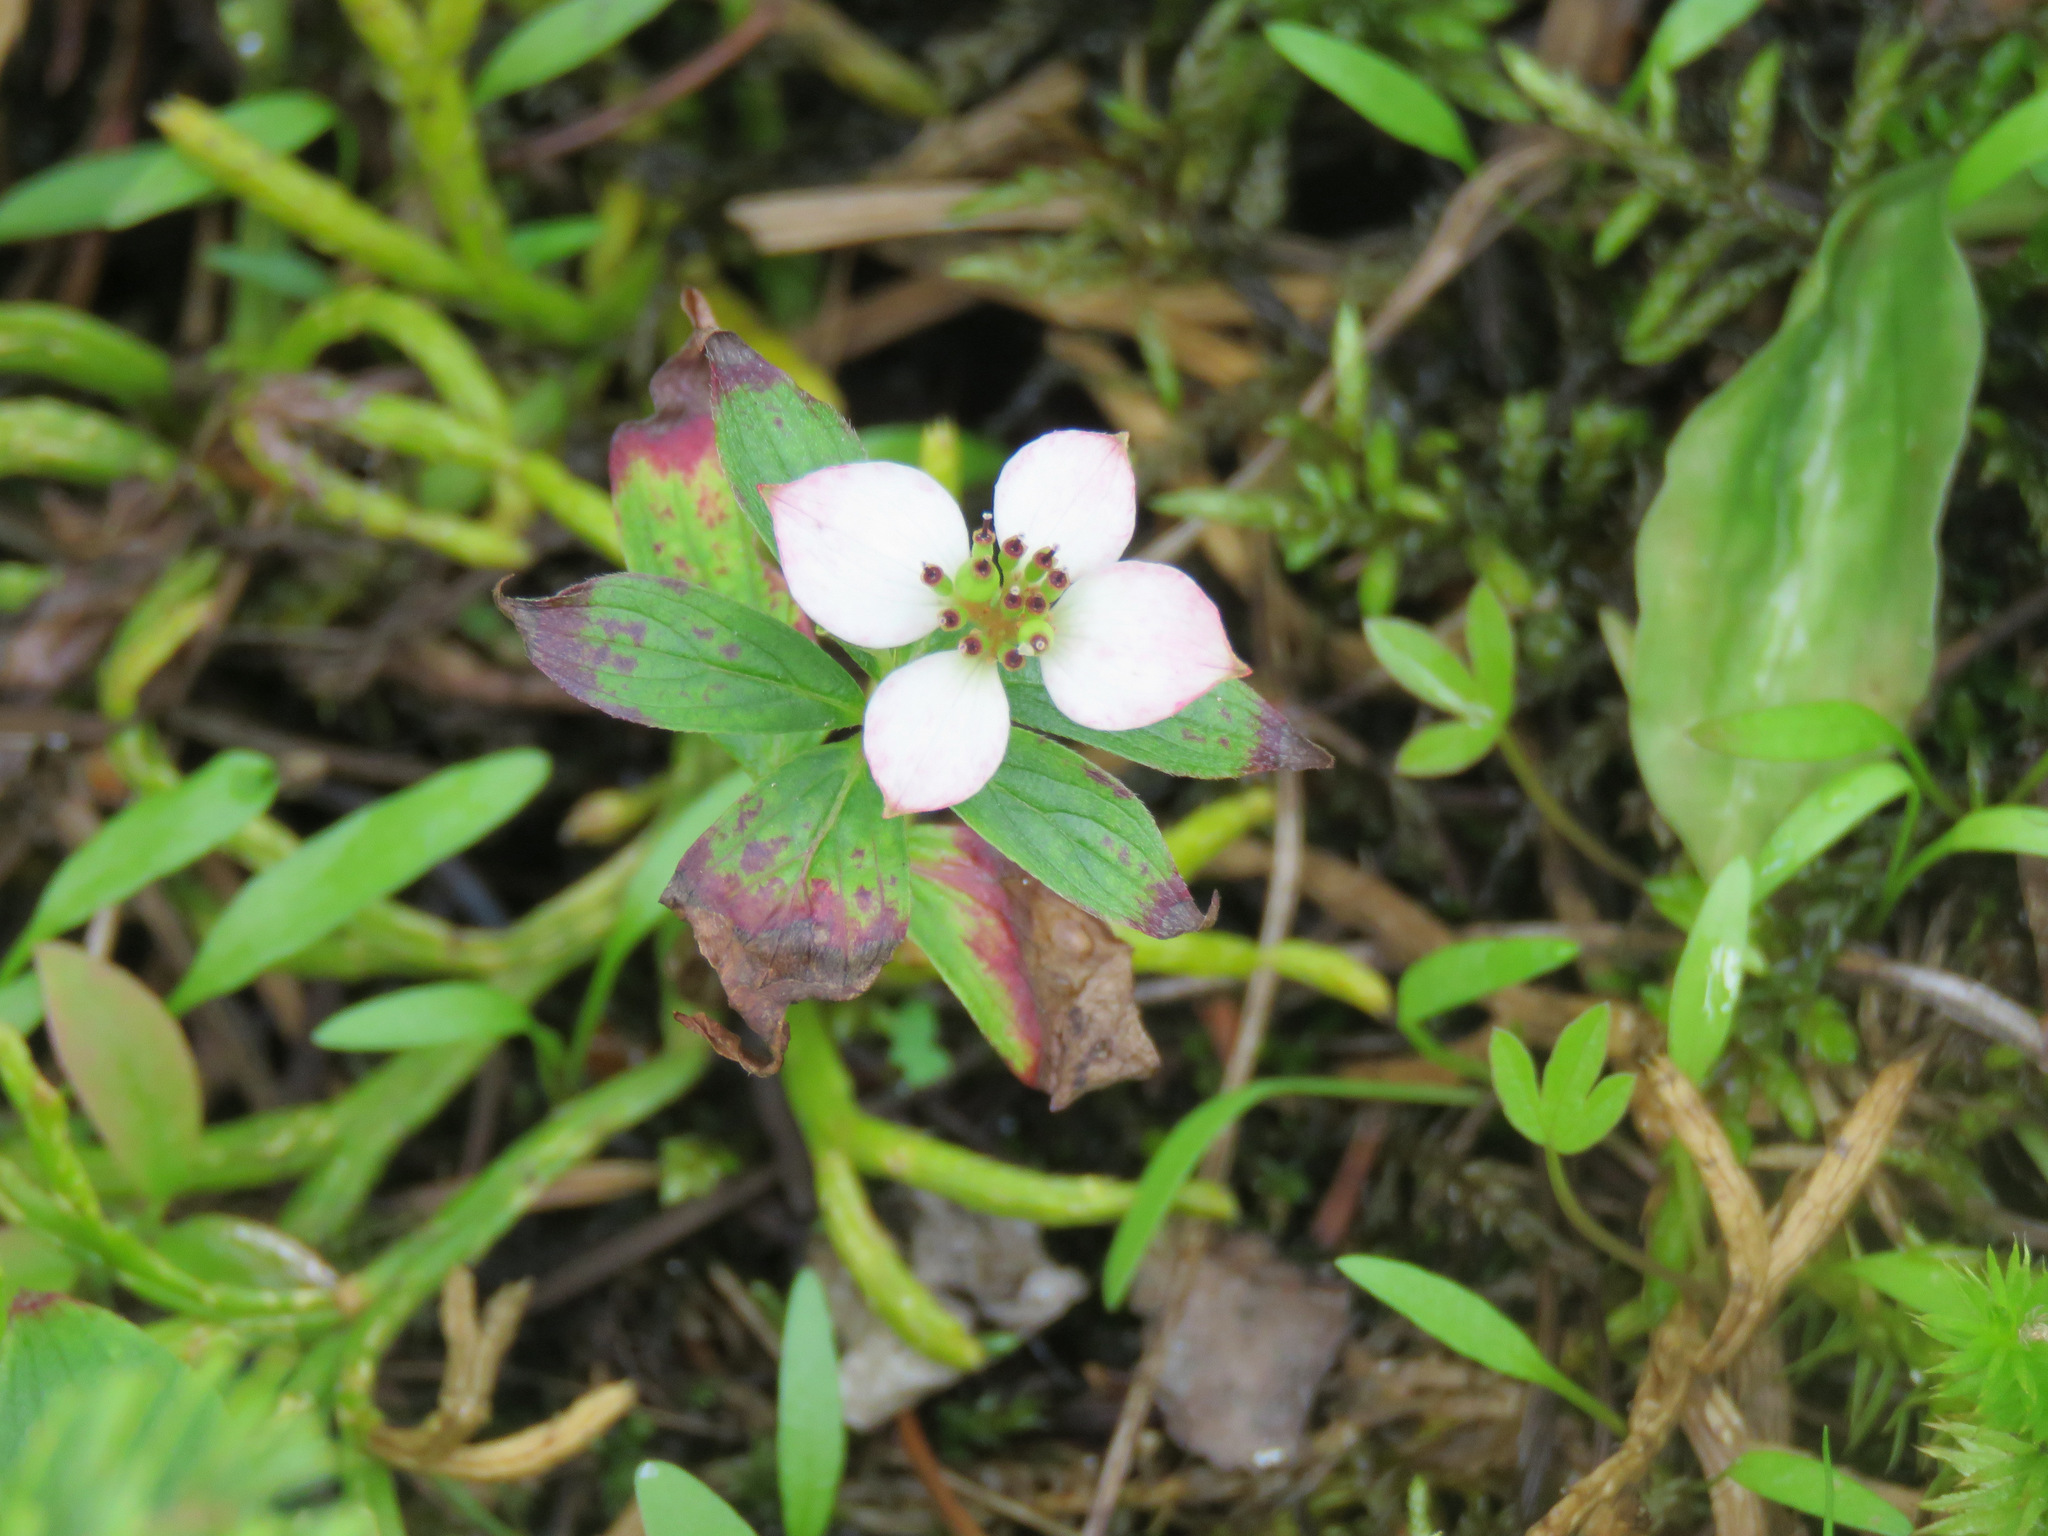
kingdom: Plantae
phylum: Tracheophyta
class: Magnoliopsida
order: Cornales
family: Cornaceae
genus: Cornus
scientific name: Cornus canadensis
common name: Creeping dogwood
